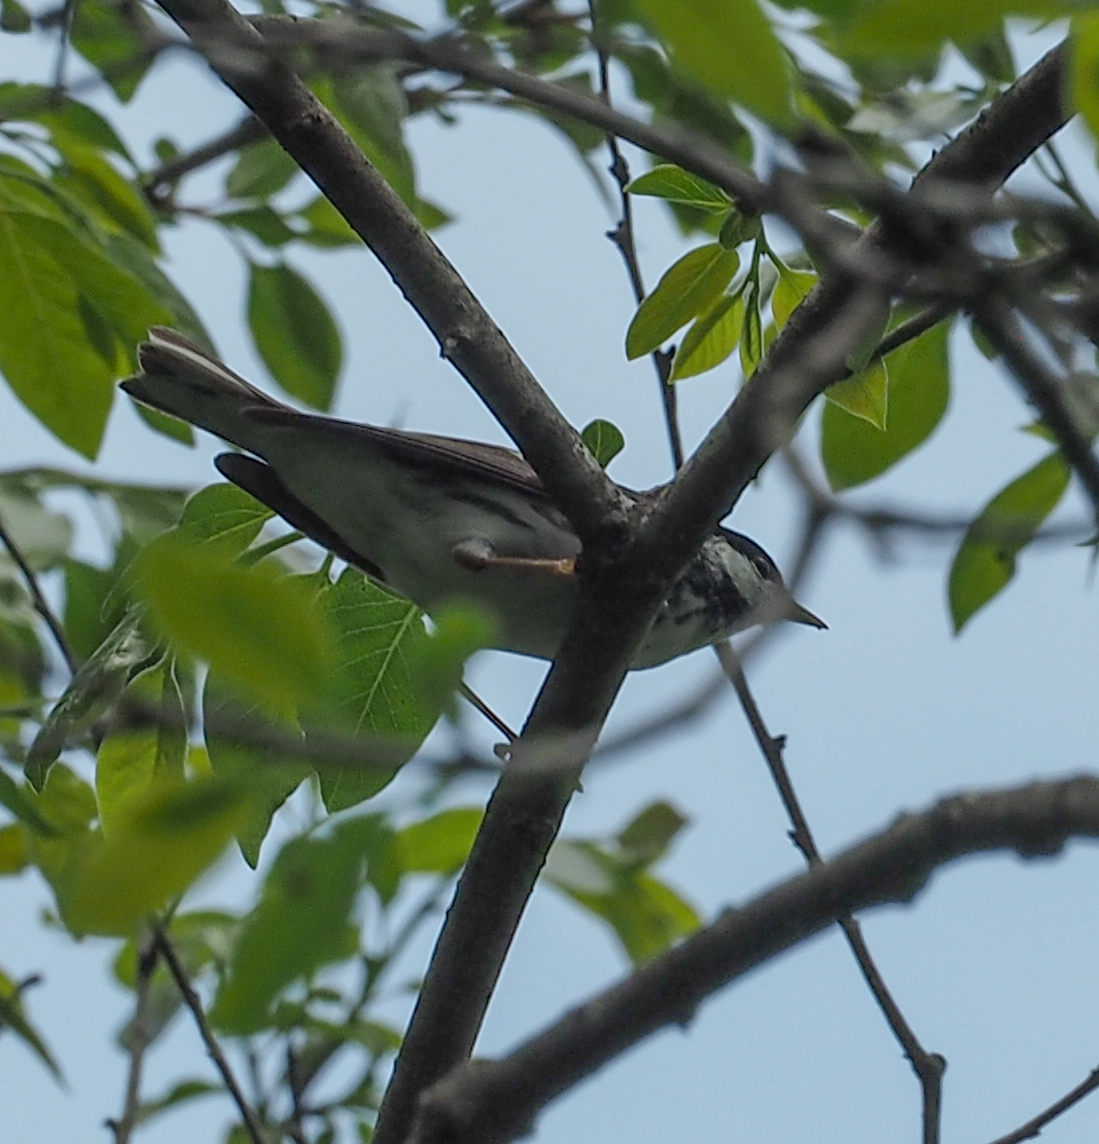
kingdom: Animalia
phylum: Chordata
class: Aves
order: Passeriformes
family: Parulidae
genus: Setophaga
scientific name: Setophaga striata
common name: Blackpoll warbler
